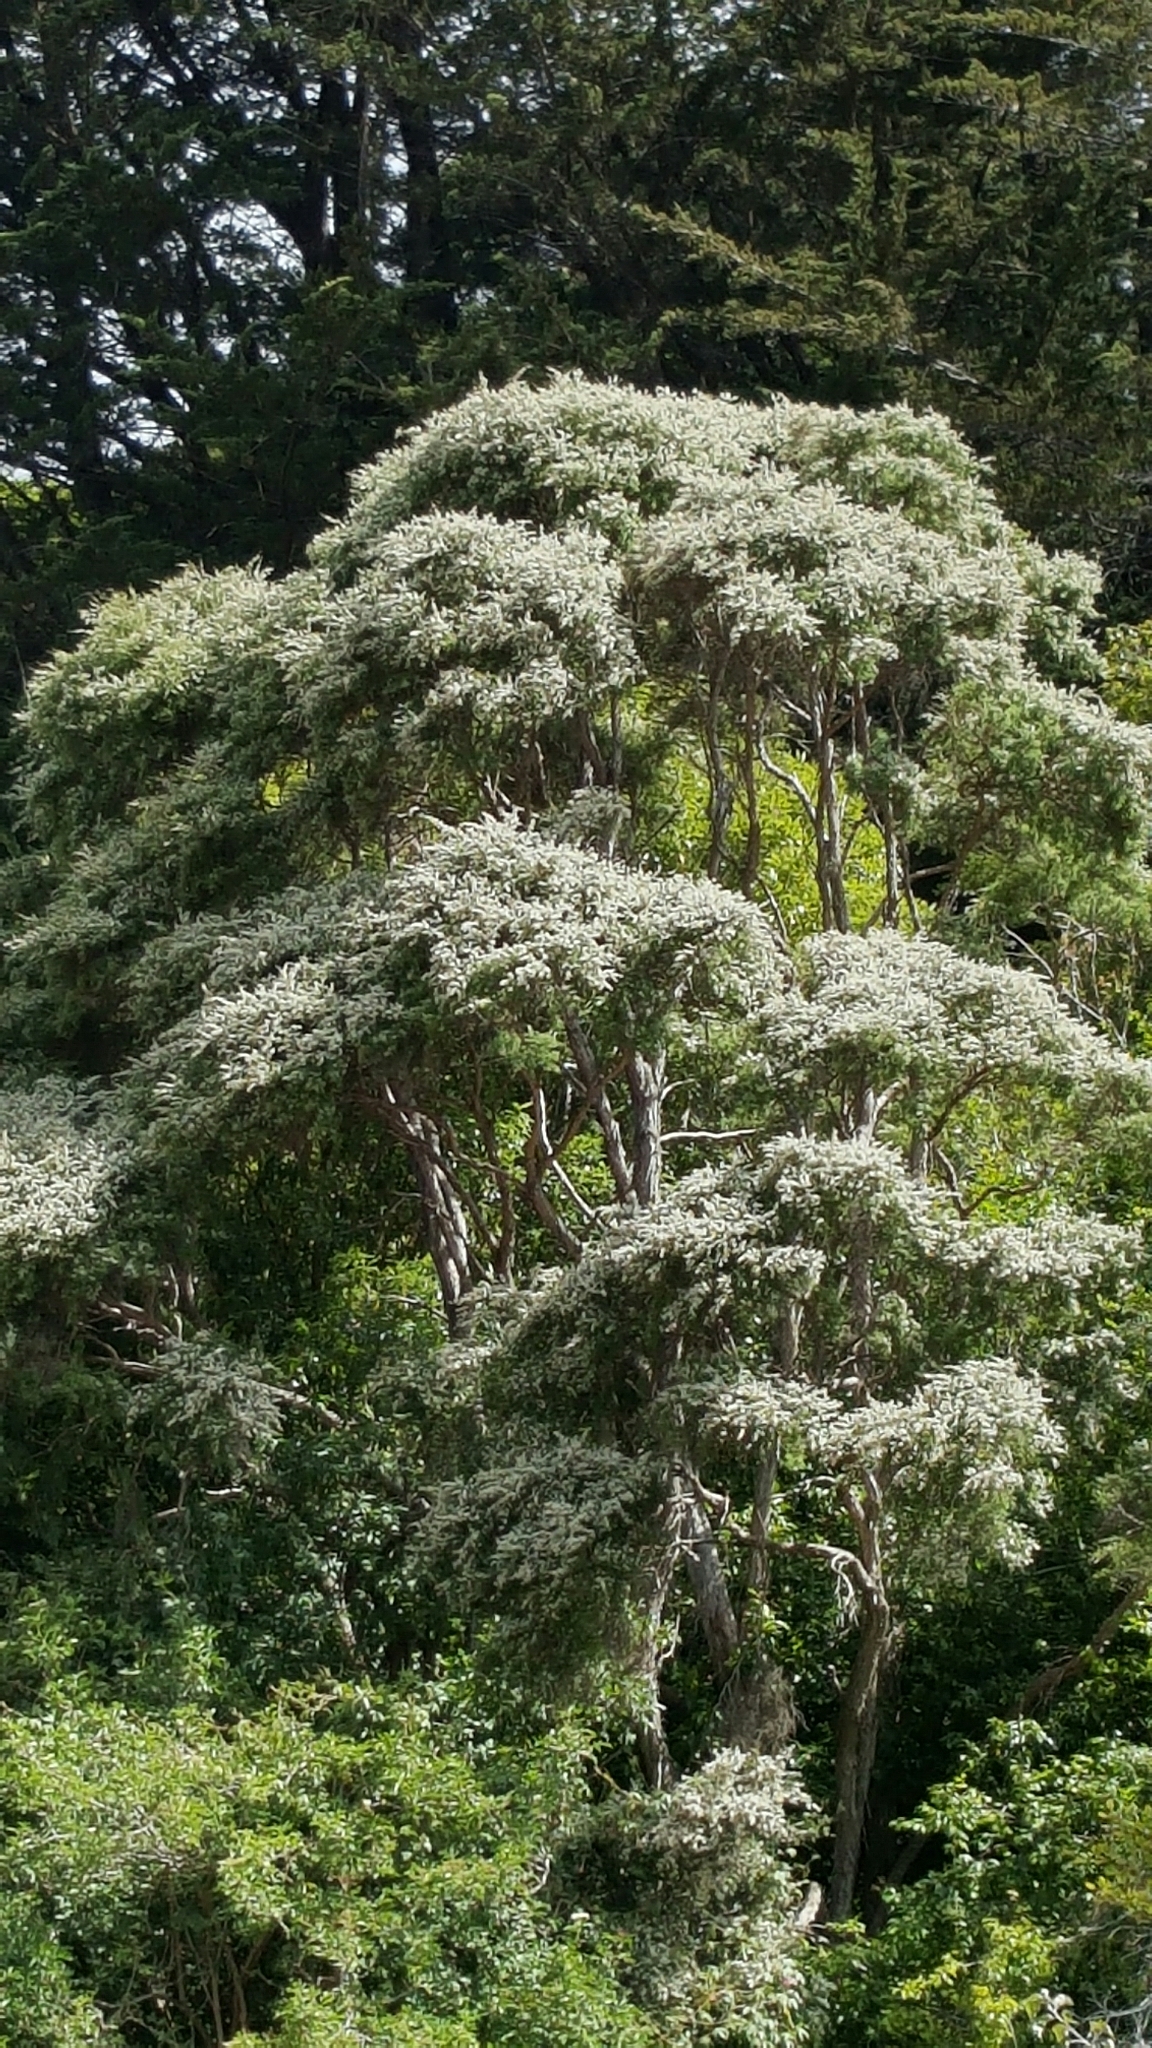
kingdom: Plantae
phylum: Tracheophyta
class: Magnoliopsida
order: Myrtales
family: Myrtaceae
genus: Kunzea
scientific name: Kunzea robusta
